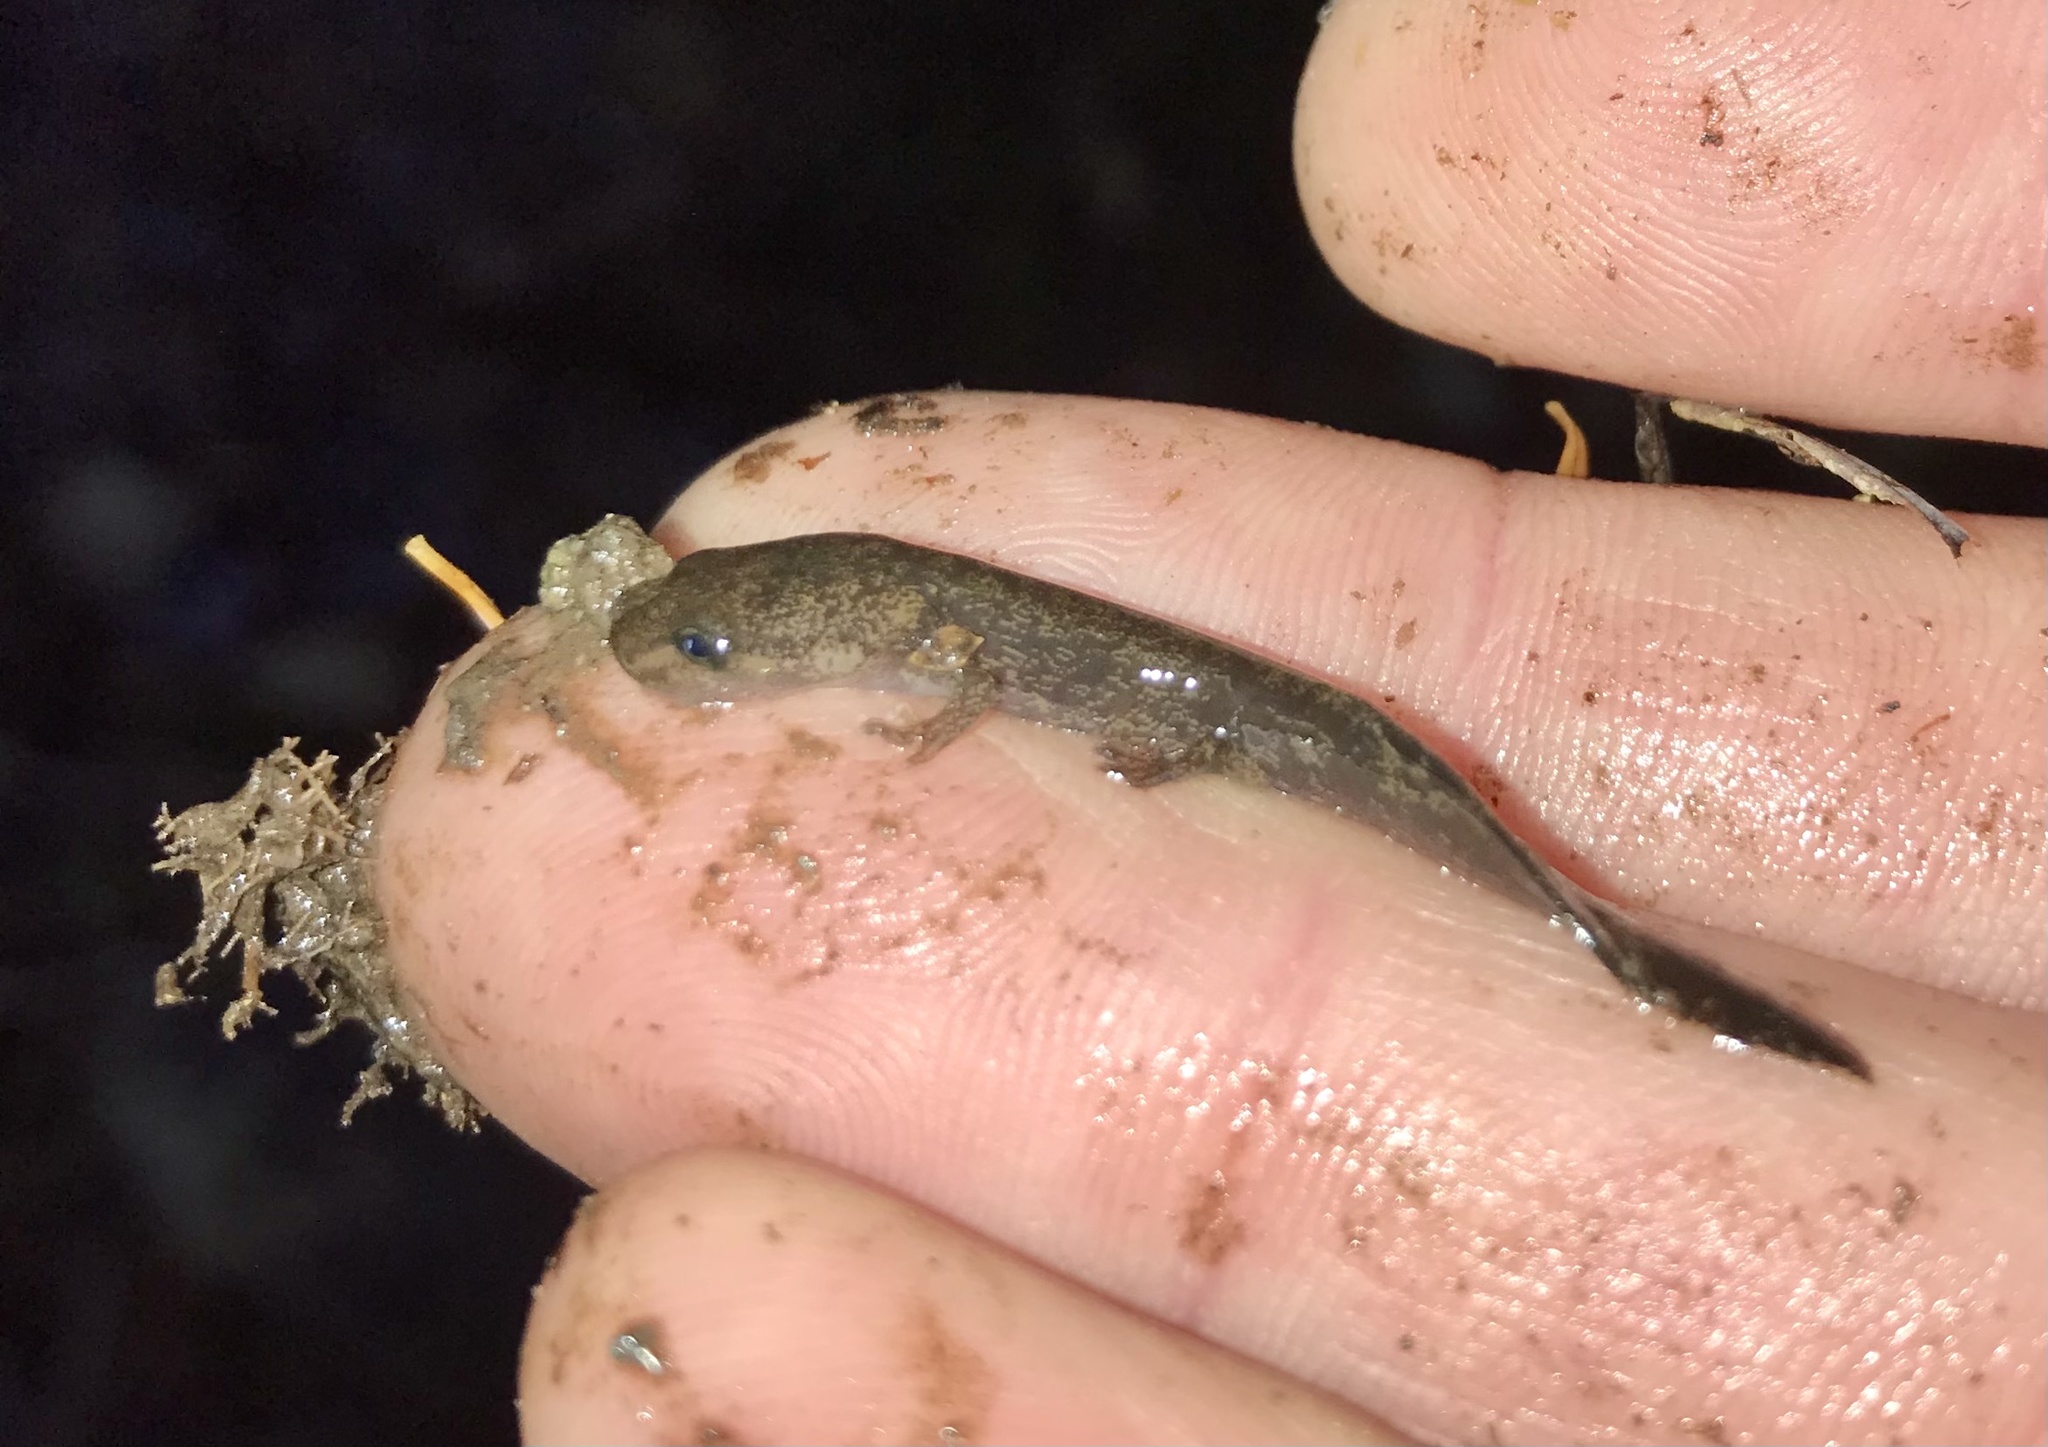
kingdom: Animalia
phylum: Chordata
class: Amphibia
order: Caudata
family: Ambystomatidae
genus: Dicamptodon
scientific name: Dicamptodon tenebrosus
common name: Coastal giant salamander
